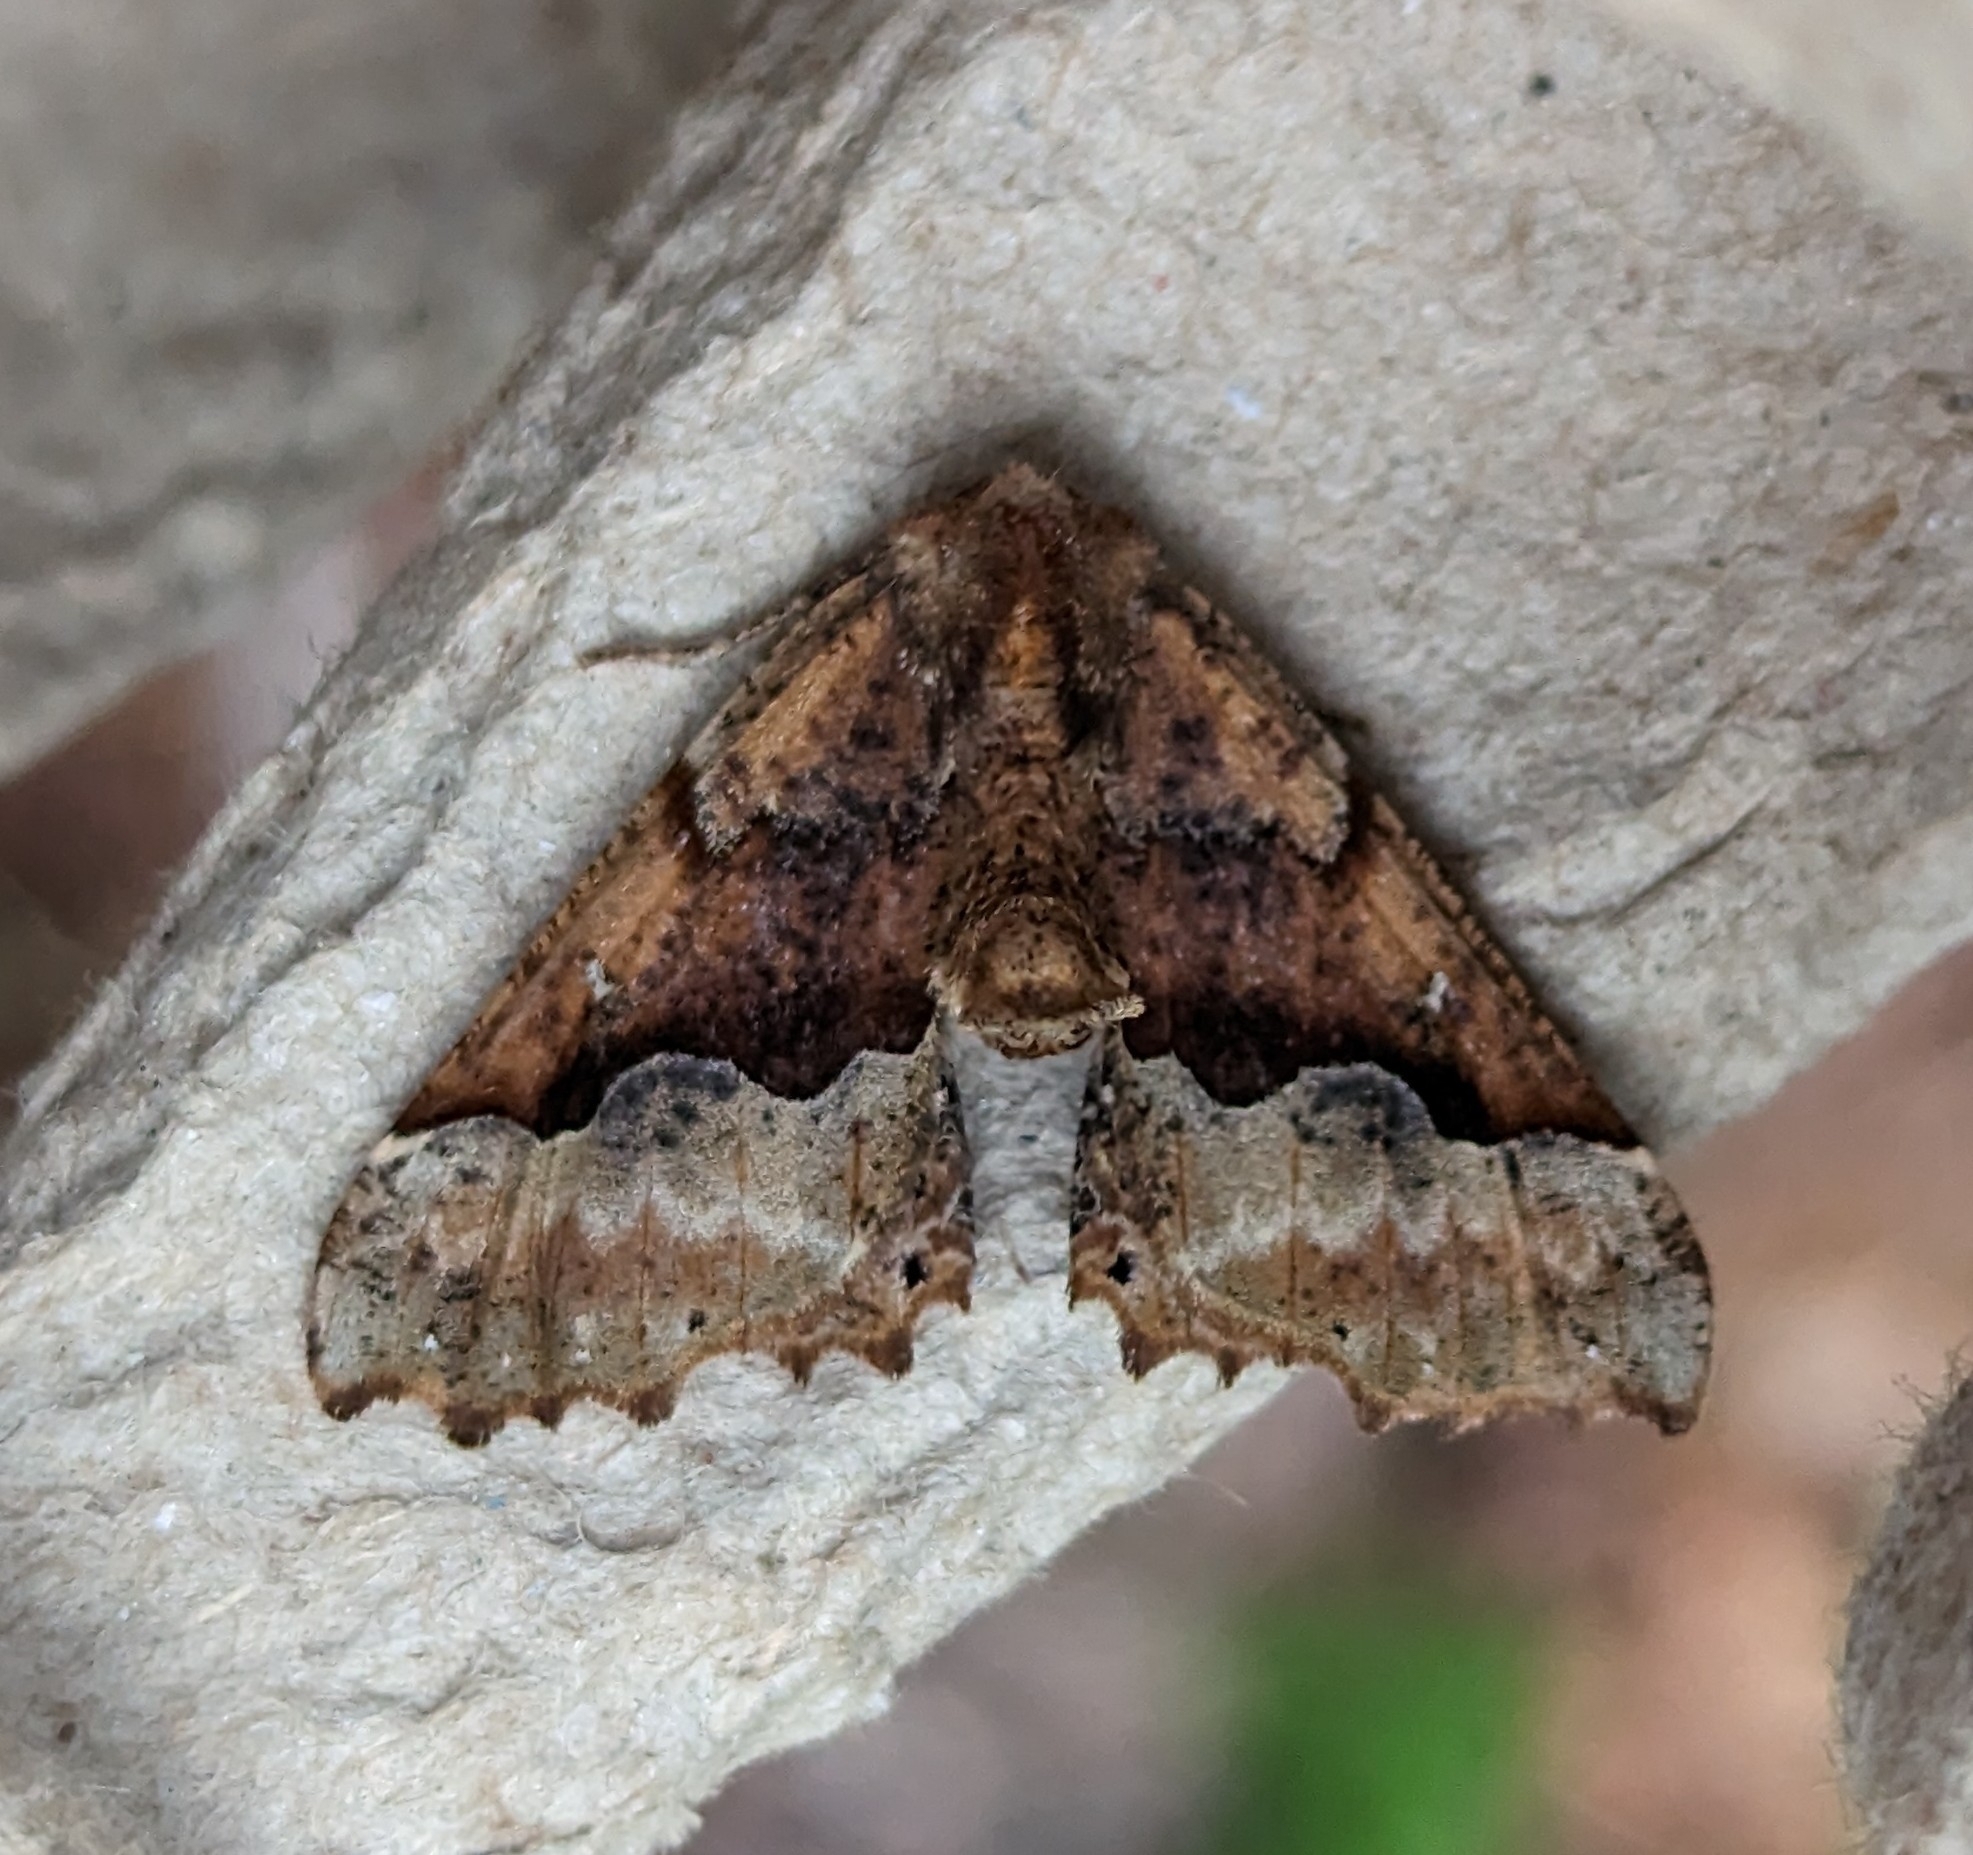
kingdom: Animalia
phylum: Arthropoda
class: Insecta
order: Lepidoptera
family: Geometridae
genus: Pero
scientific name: Pero morrisonaria
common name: Morrison's pero
